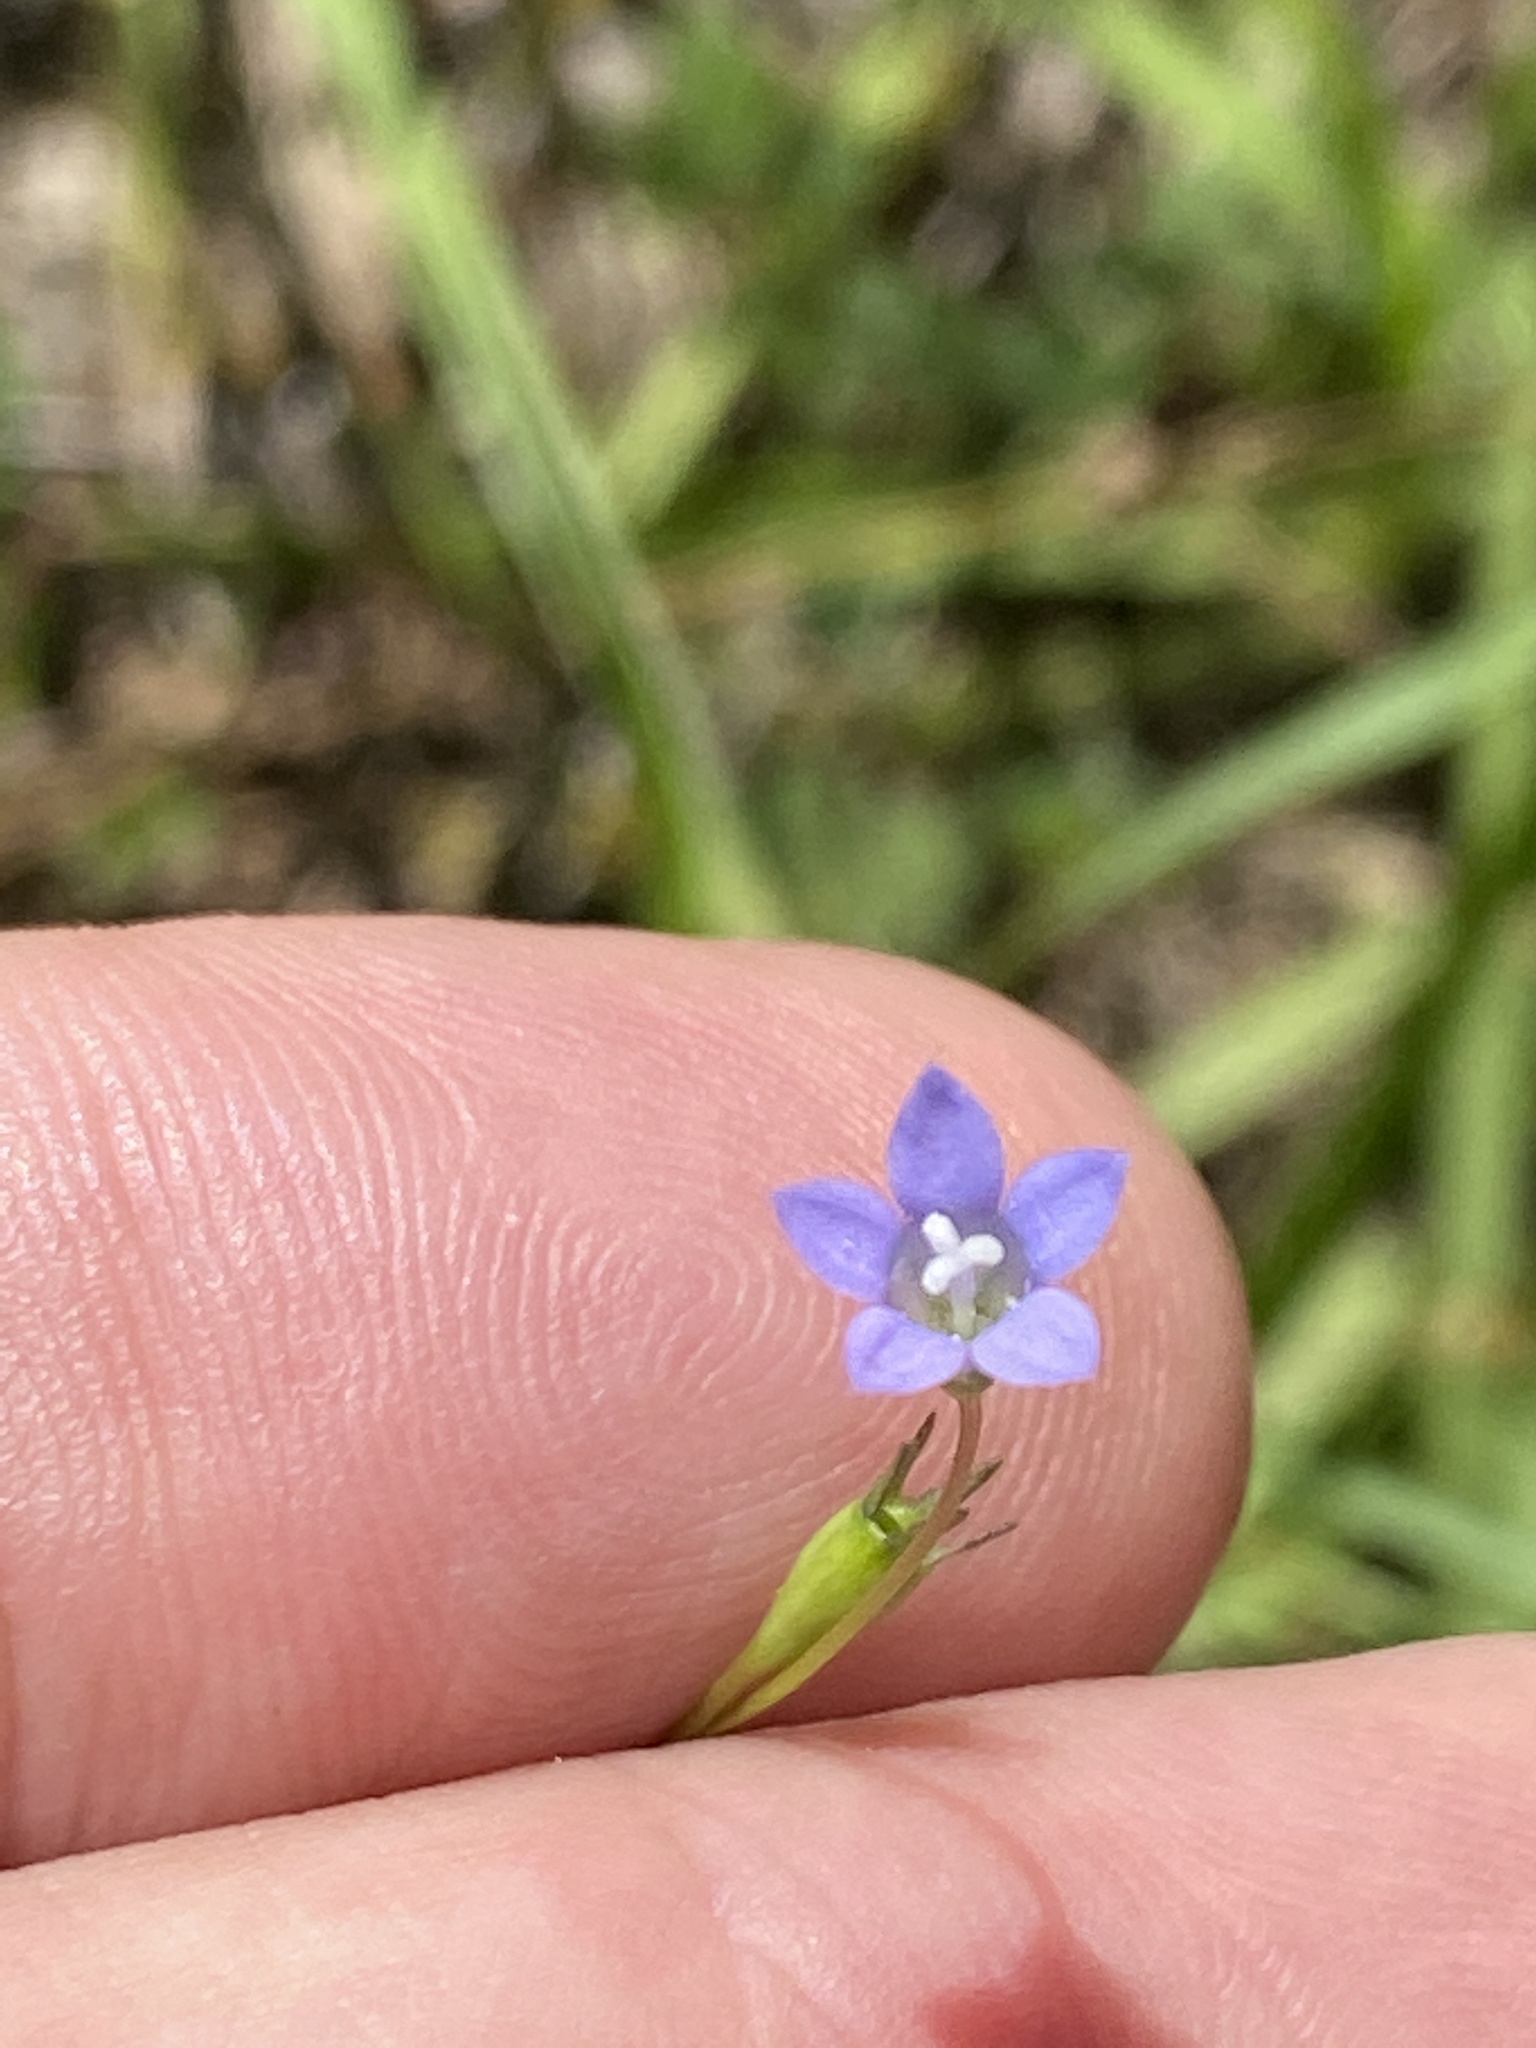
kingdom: Plantae
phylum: Tracheophyta
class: Magnoliopsida
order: Asterales
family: Campanulaceae
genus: Wahlenbergia
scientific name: Wahlenbergia marginata
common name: Southern rockbell
